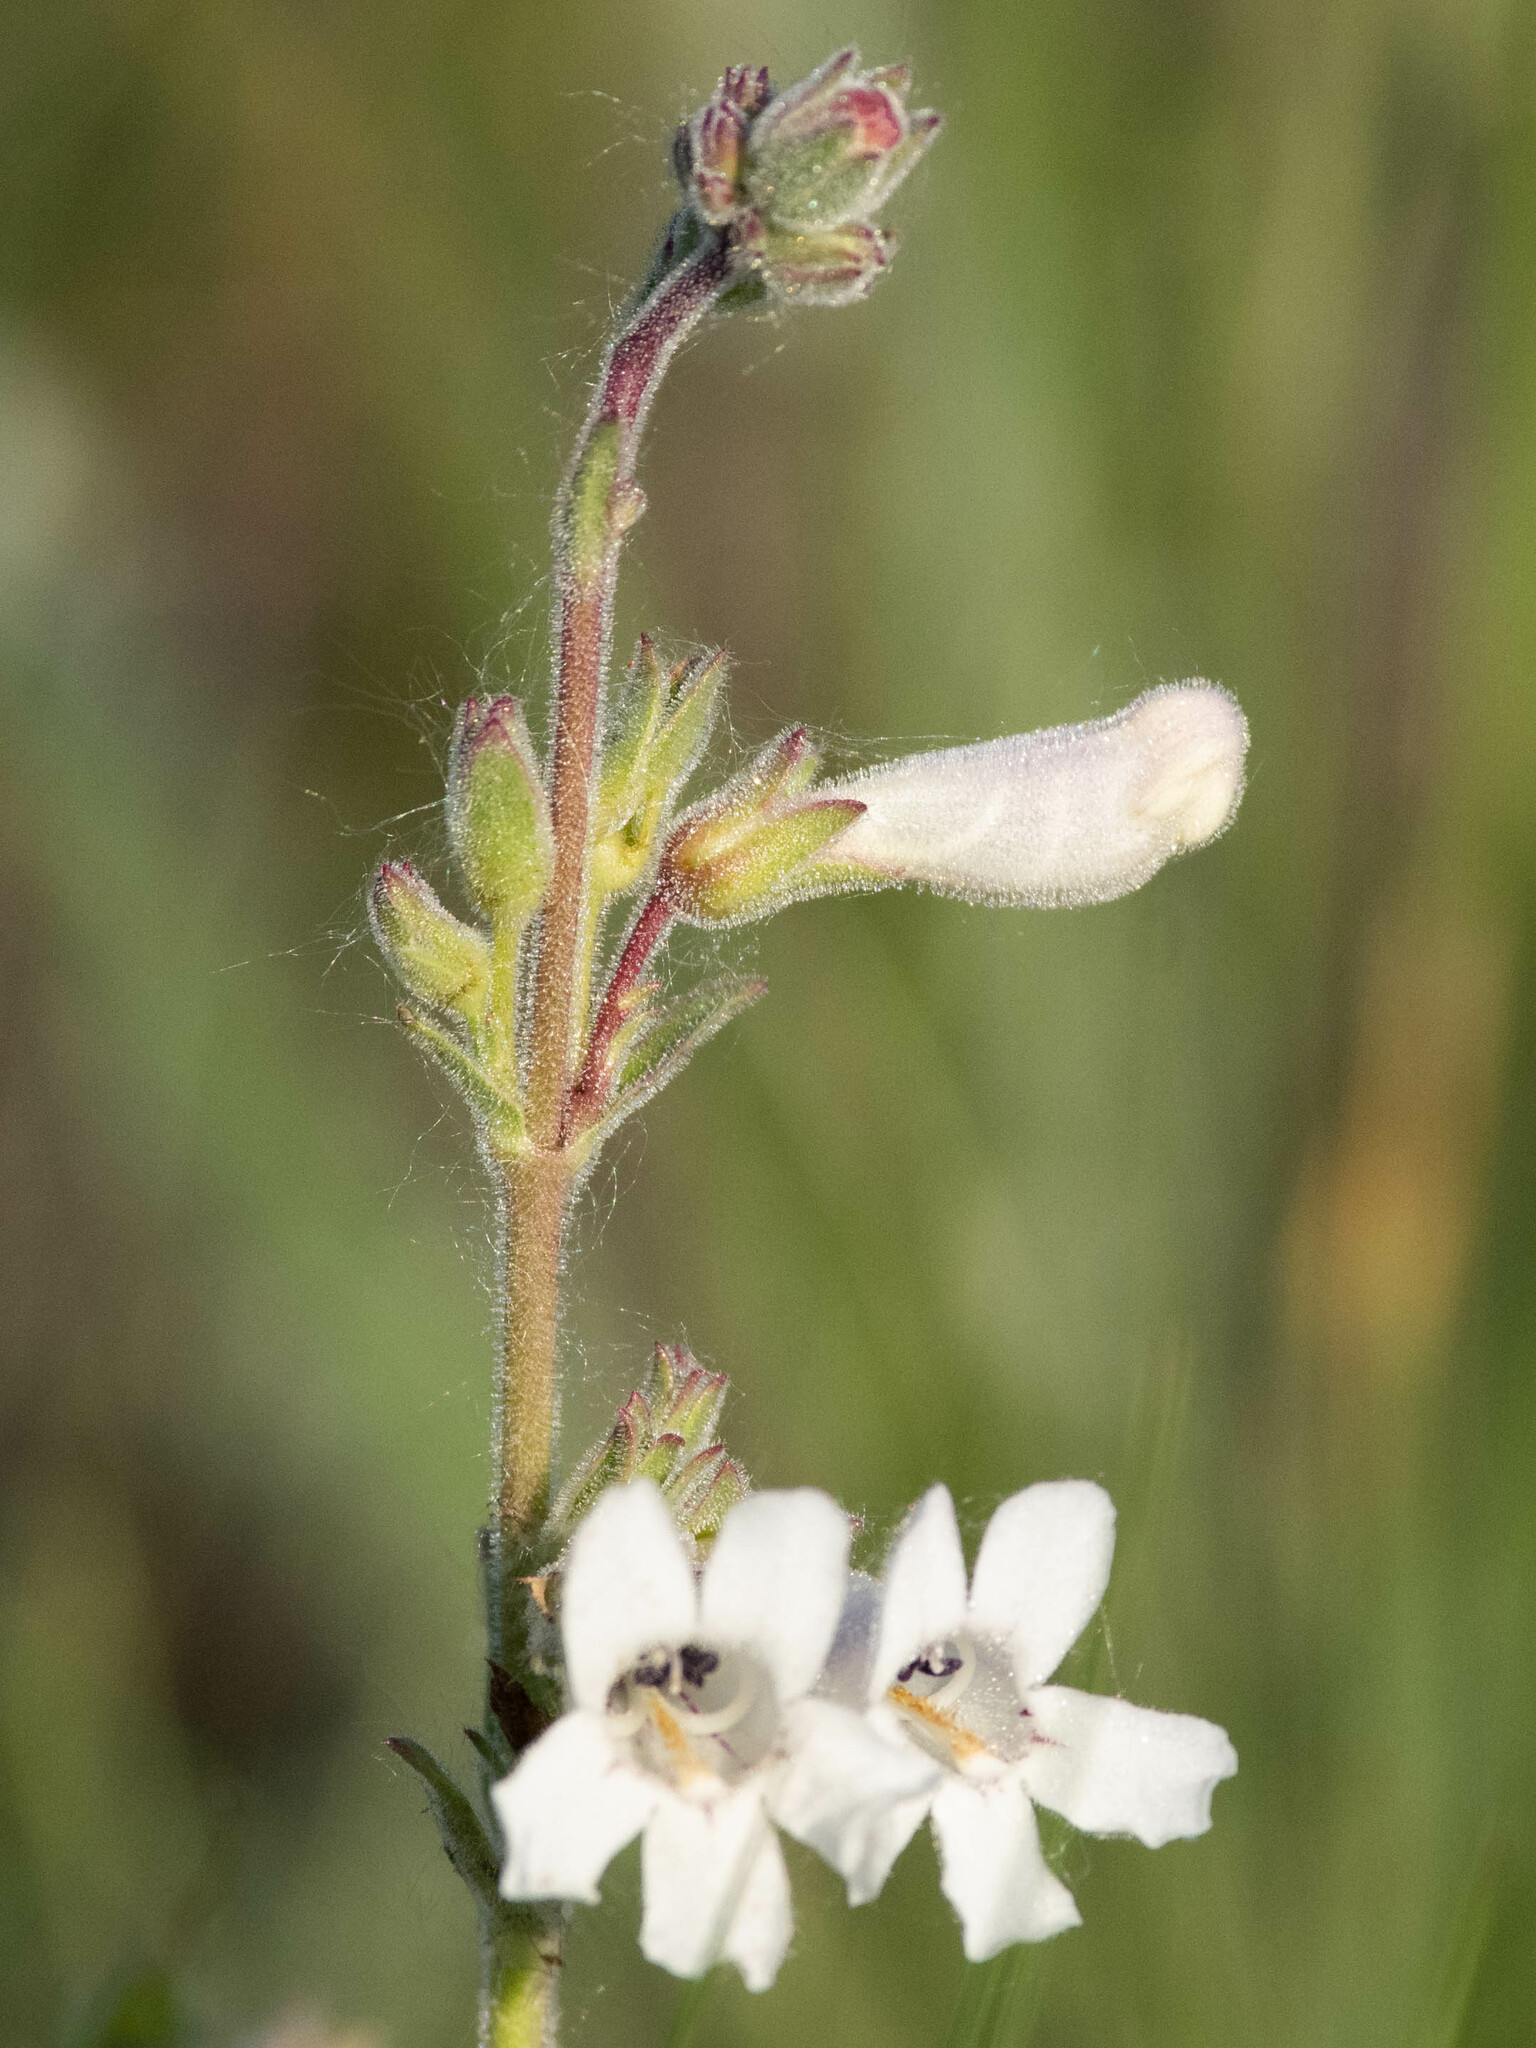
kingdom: Plantae
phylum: Tracheophyta
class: Magnoliopsida
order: Lamiales
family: Plantaginaceae
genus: Penstemon
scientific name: Penstemon albidus
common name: White beardtongue
